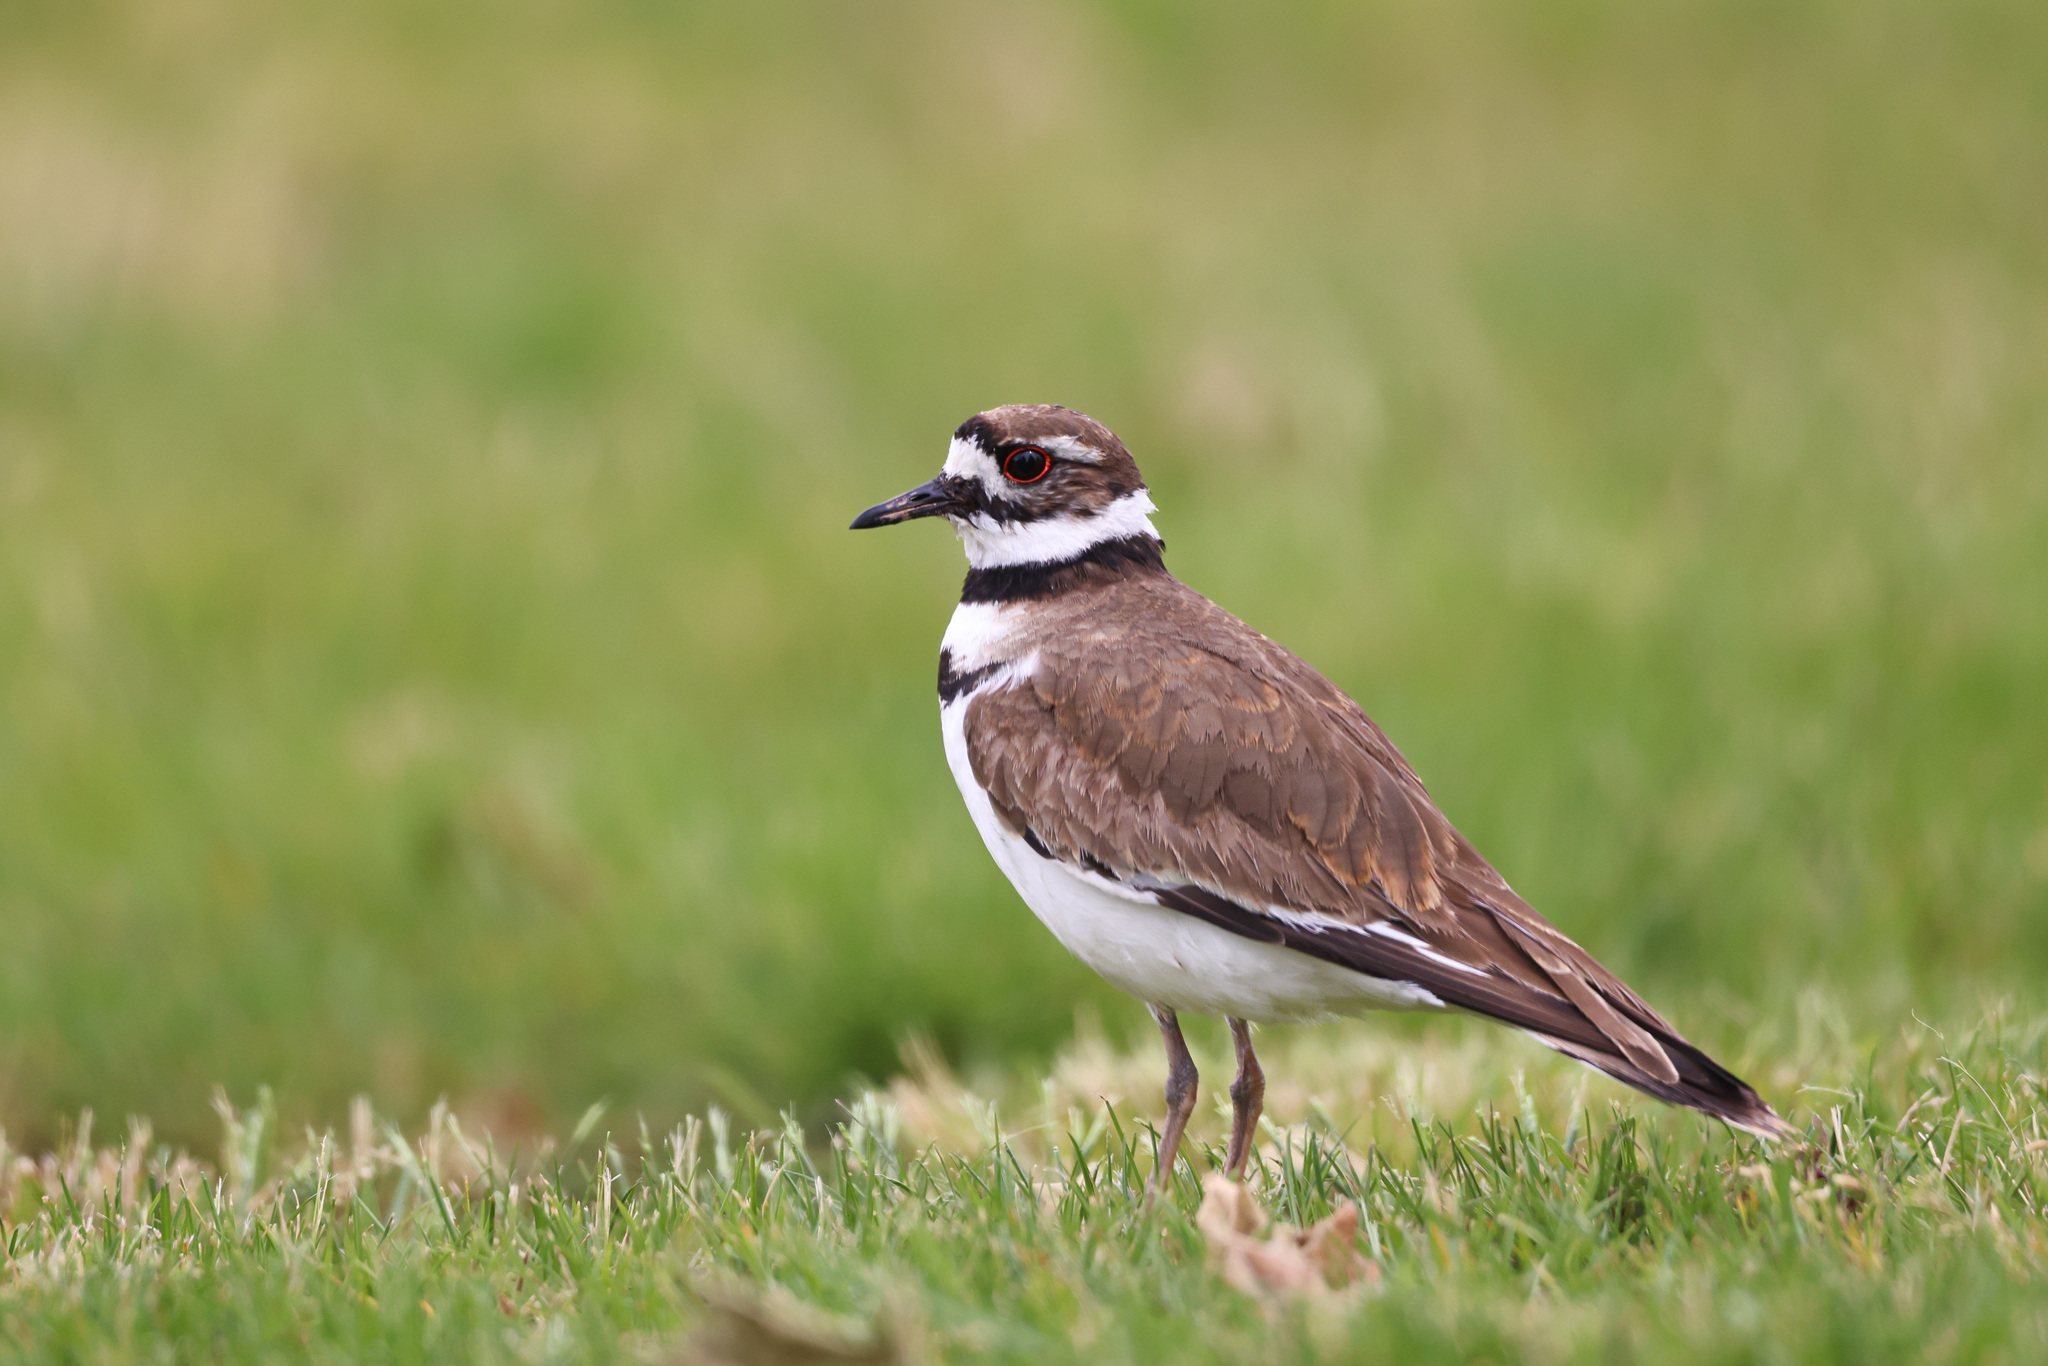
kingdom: Animalia
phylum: Chordata
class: Aves
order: Charadriiformes
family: Charadriidae
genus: Charadrius
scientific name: Charadrius vociferus
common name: Killdeer
